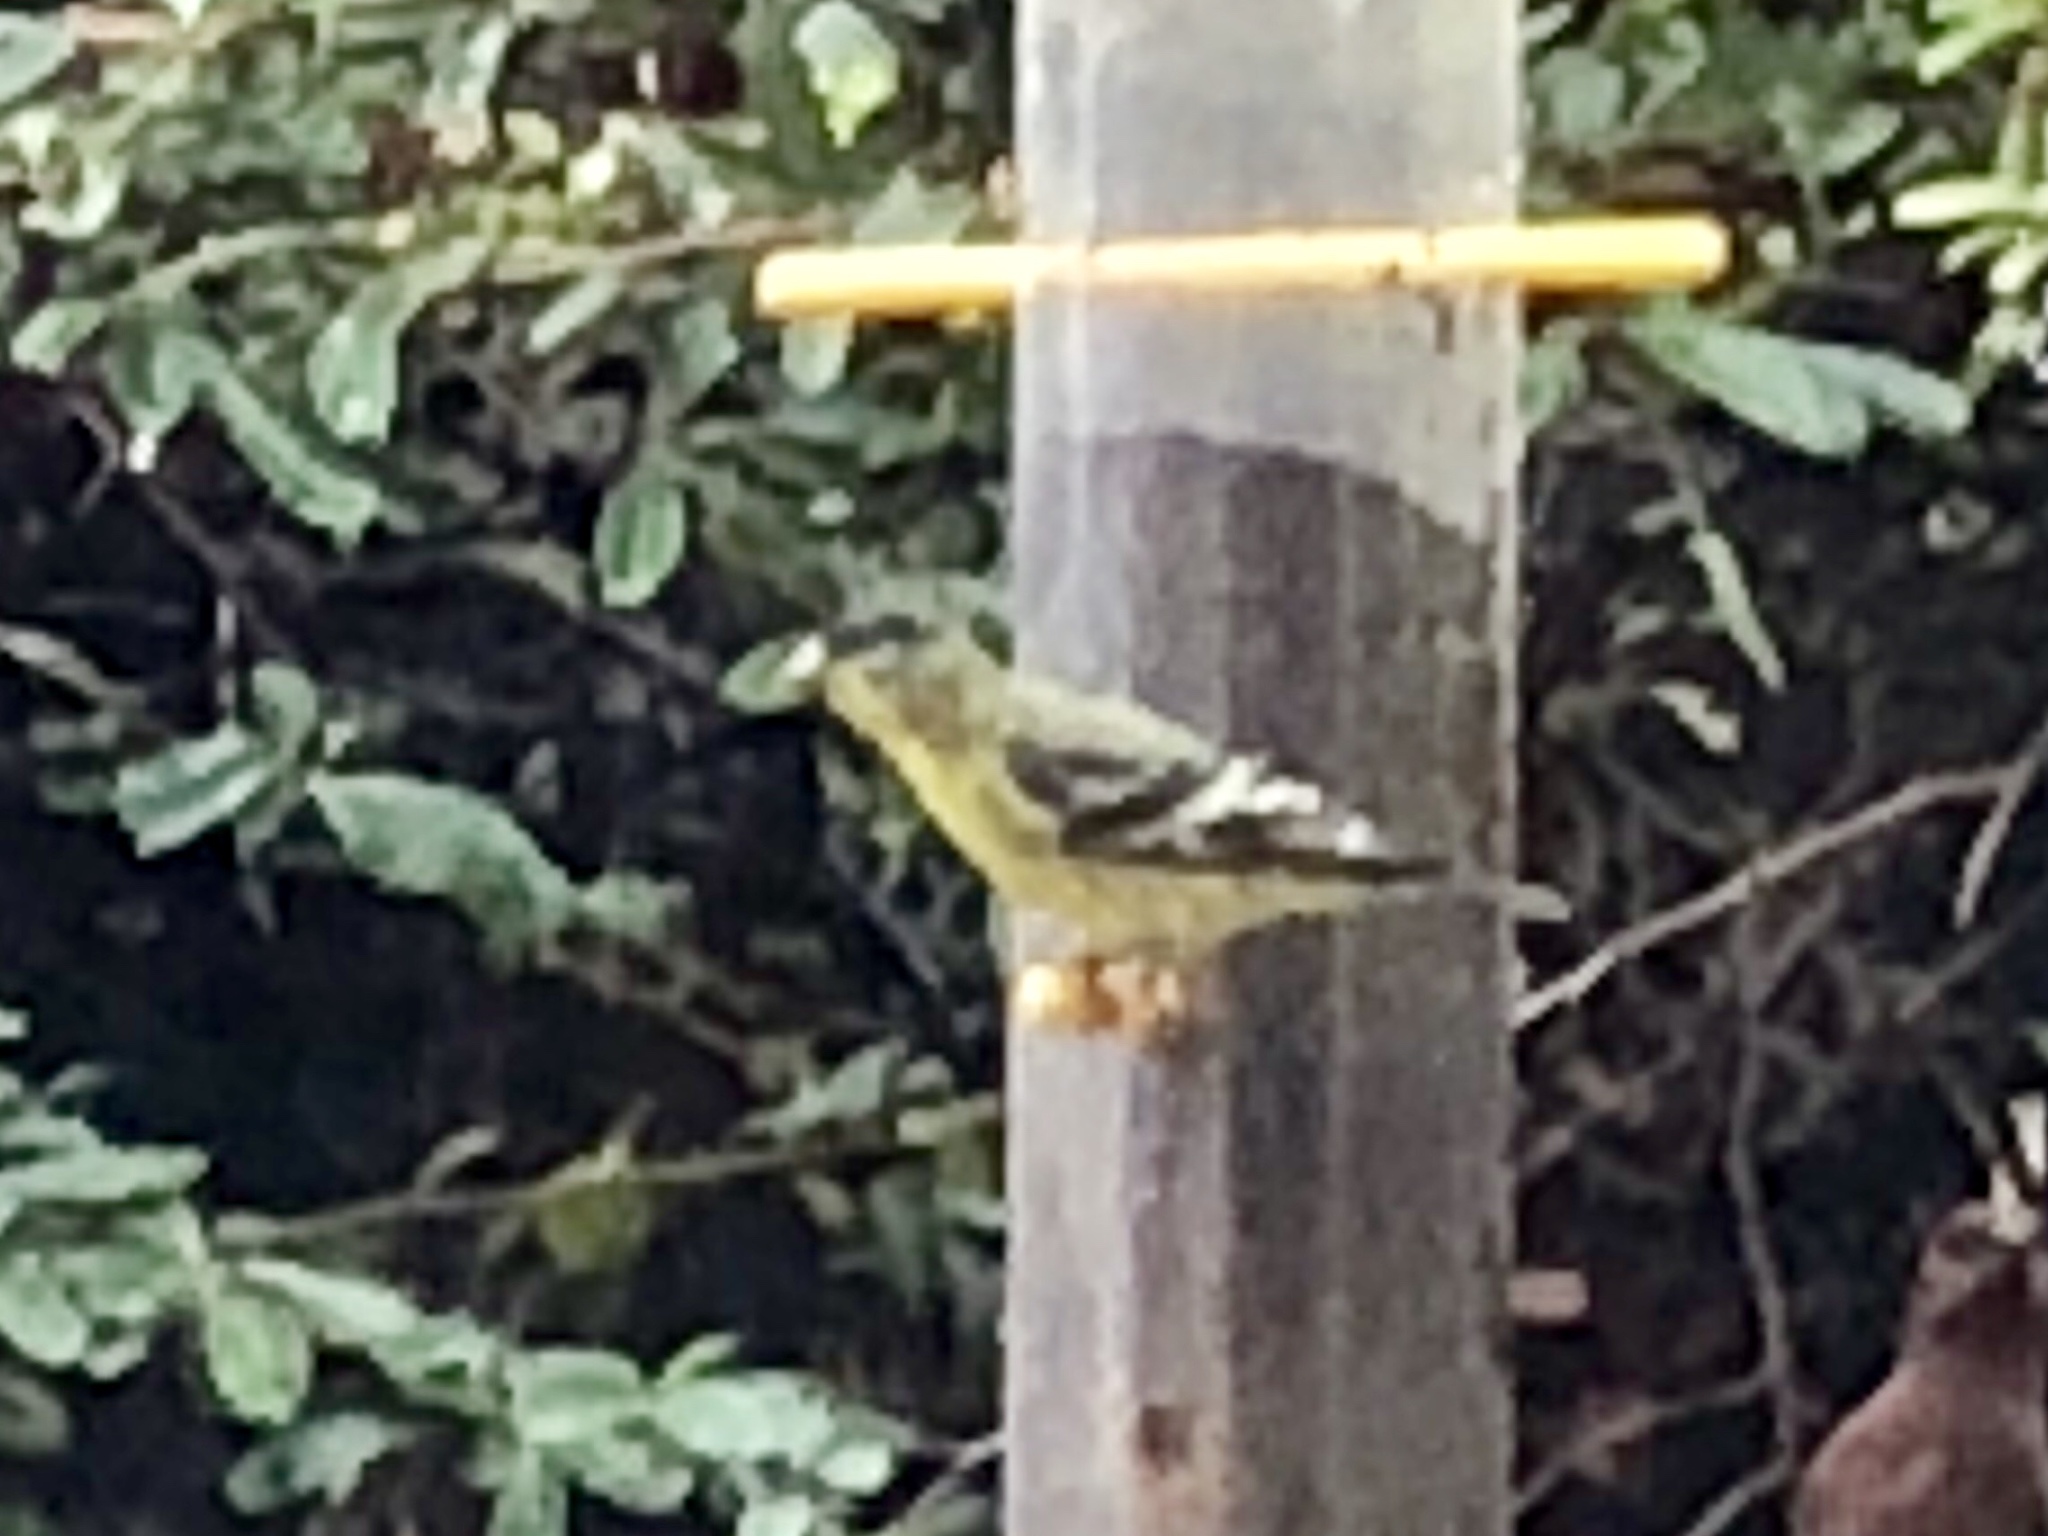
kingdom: Animalia
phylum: Chordata
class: Aves
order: Passeriformes
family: Fringillidae
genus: Spinus
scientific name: Spinus psaltria
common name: Lesser goldfinch
